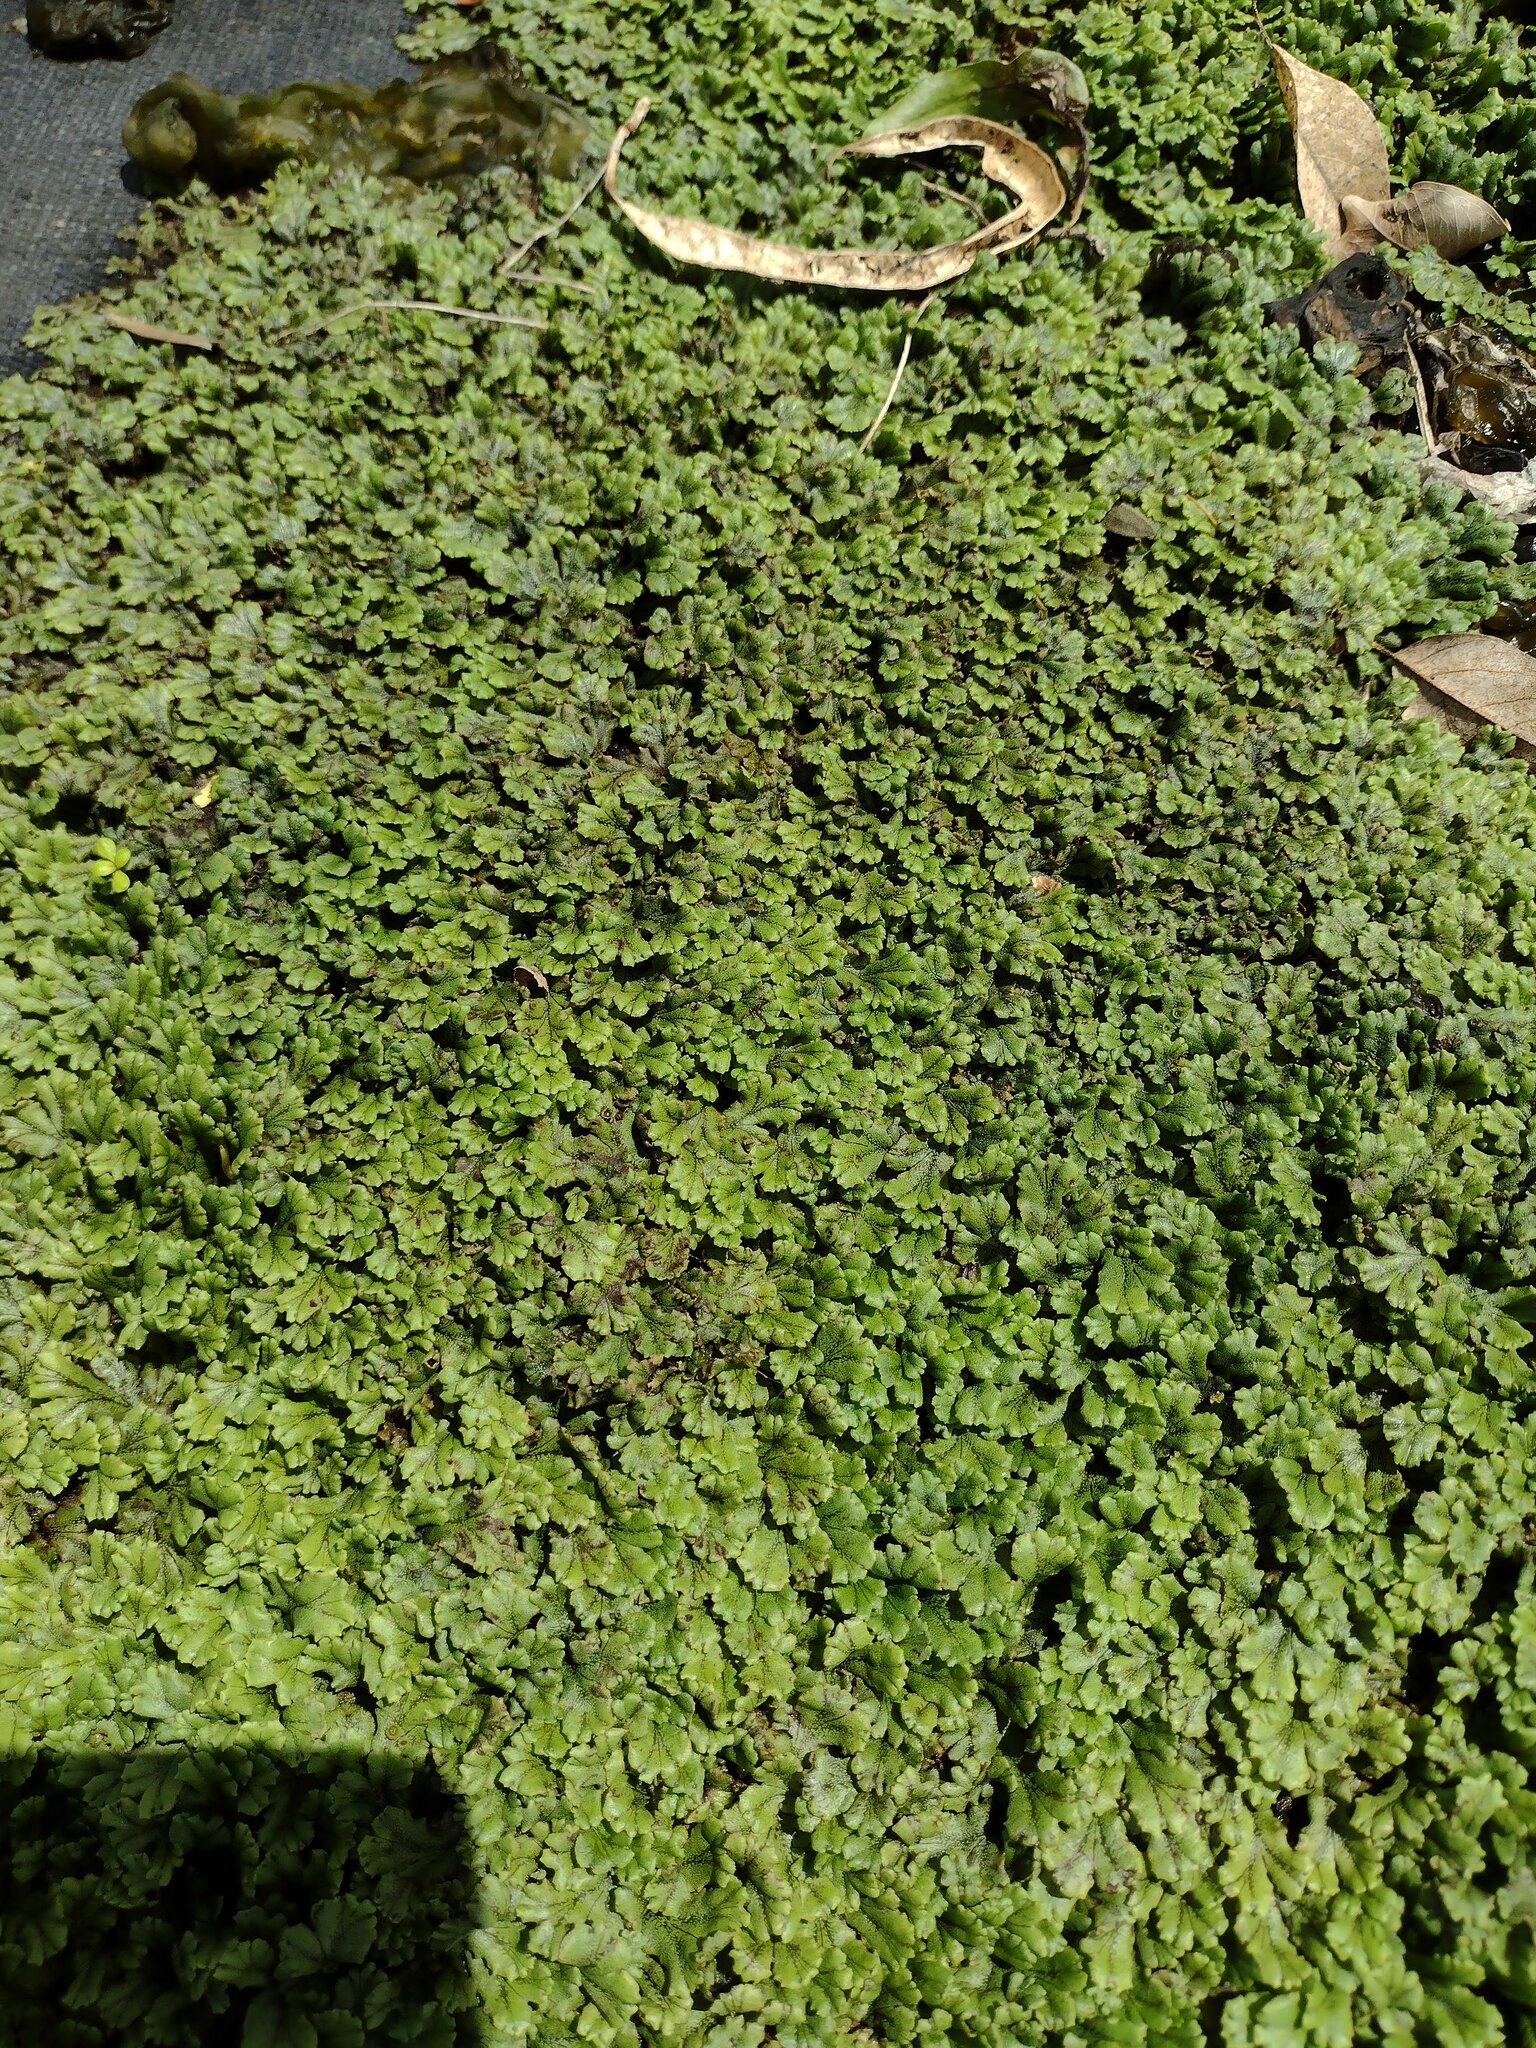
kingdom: Plantae
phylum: Marchantiophyta
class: Marchantiopsida
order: Marchantiales
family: Marchantiaceae
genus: Marchantia
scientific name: Marchantia polymorpha
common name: Common liverwort
